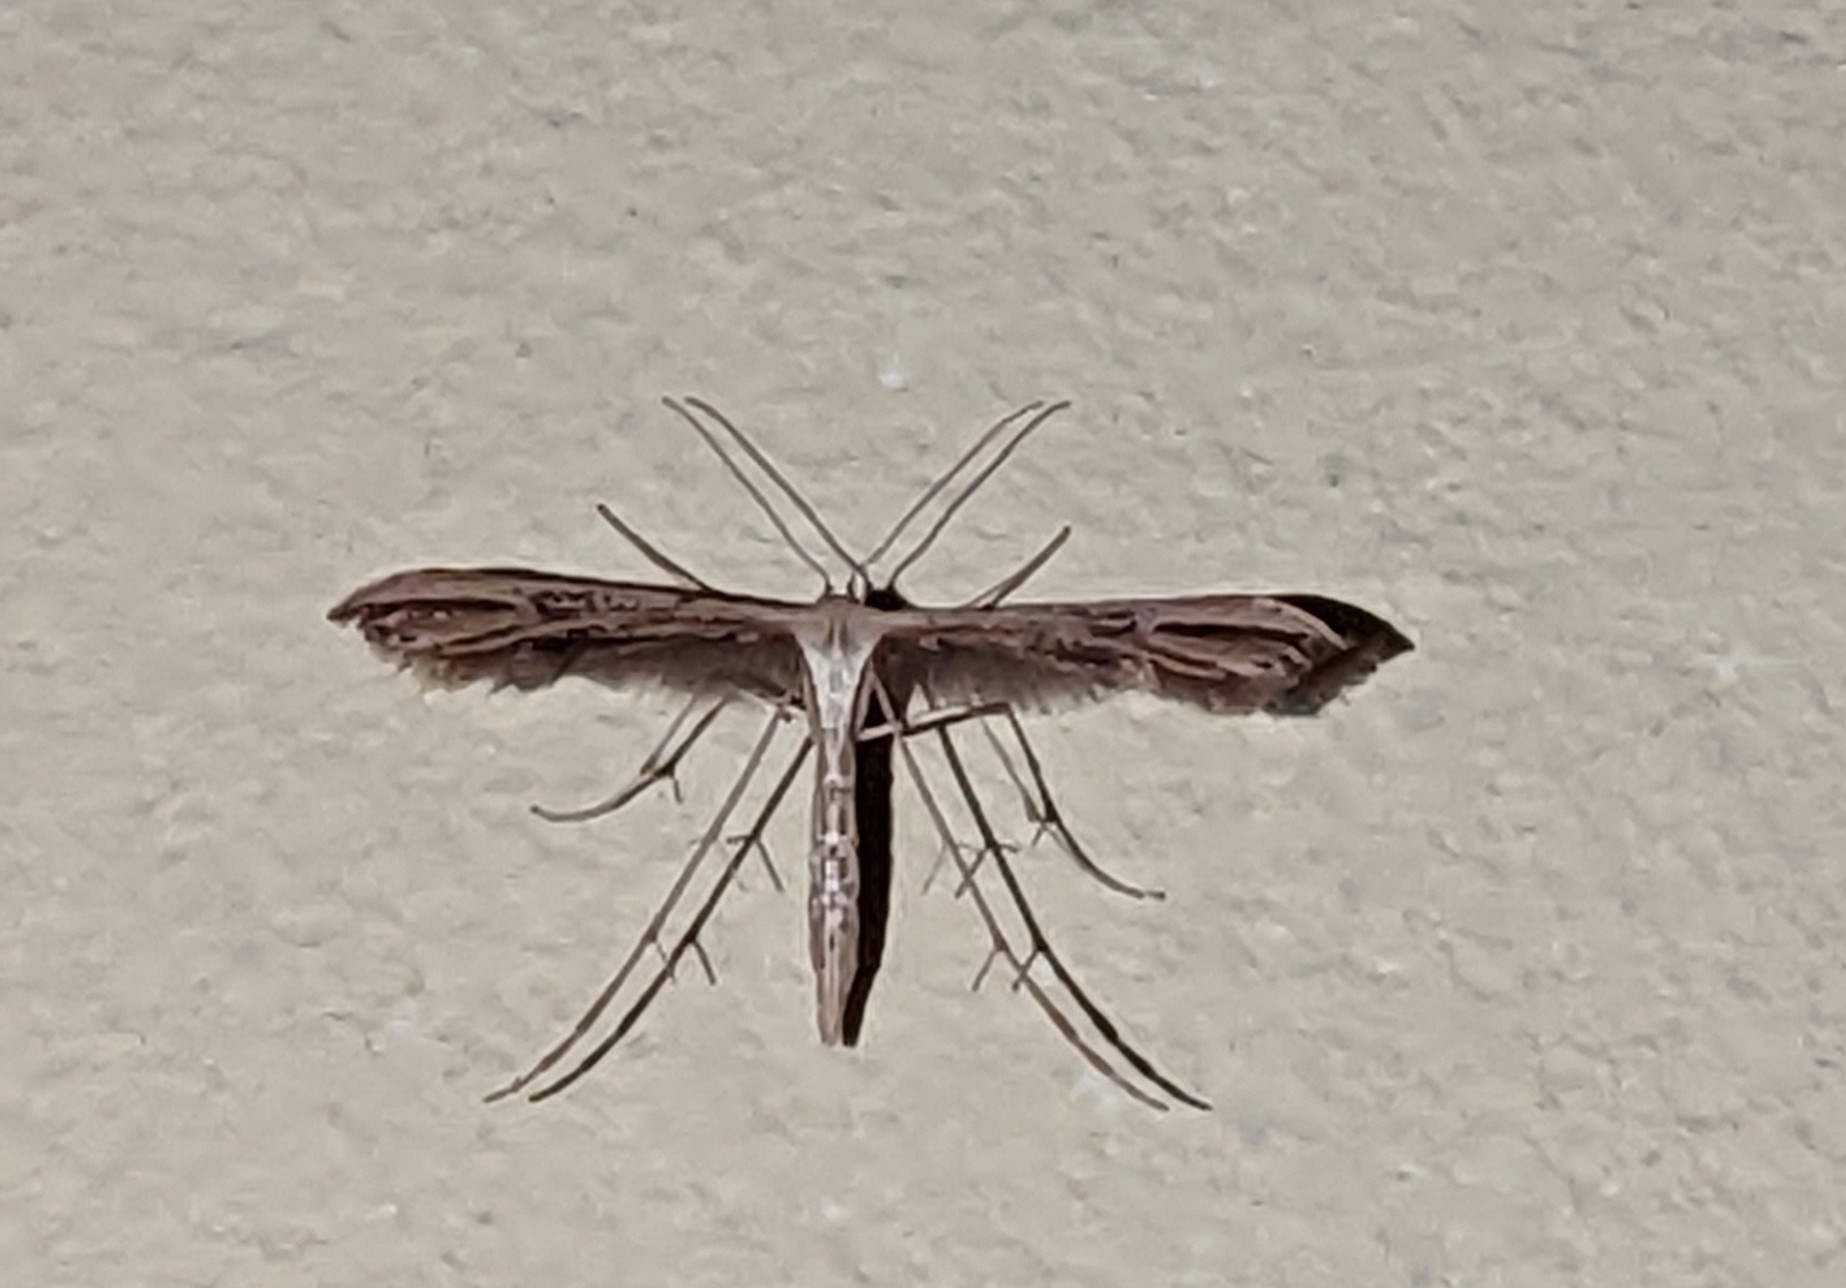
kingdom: Animalia
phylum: Arthropoda
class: Insecta
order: Lepidoptera
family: Pterophoridae
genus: Amblyptilia
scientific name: Amblyptilia acanthadactyla
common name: Beautiful plume
